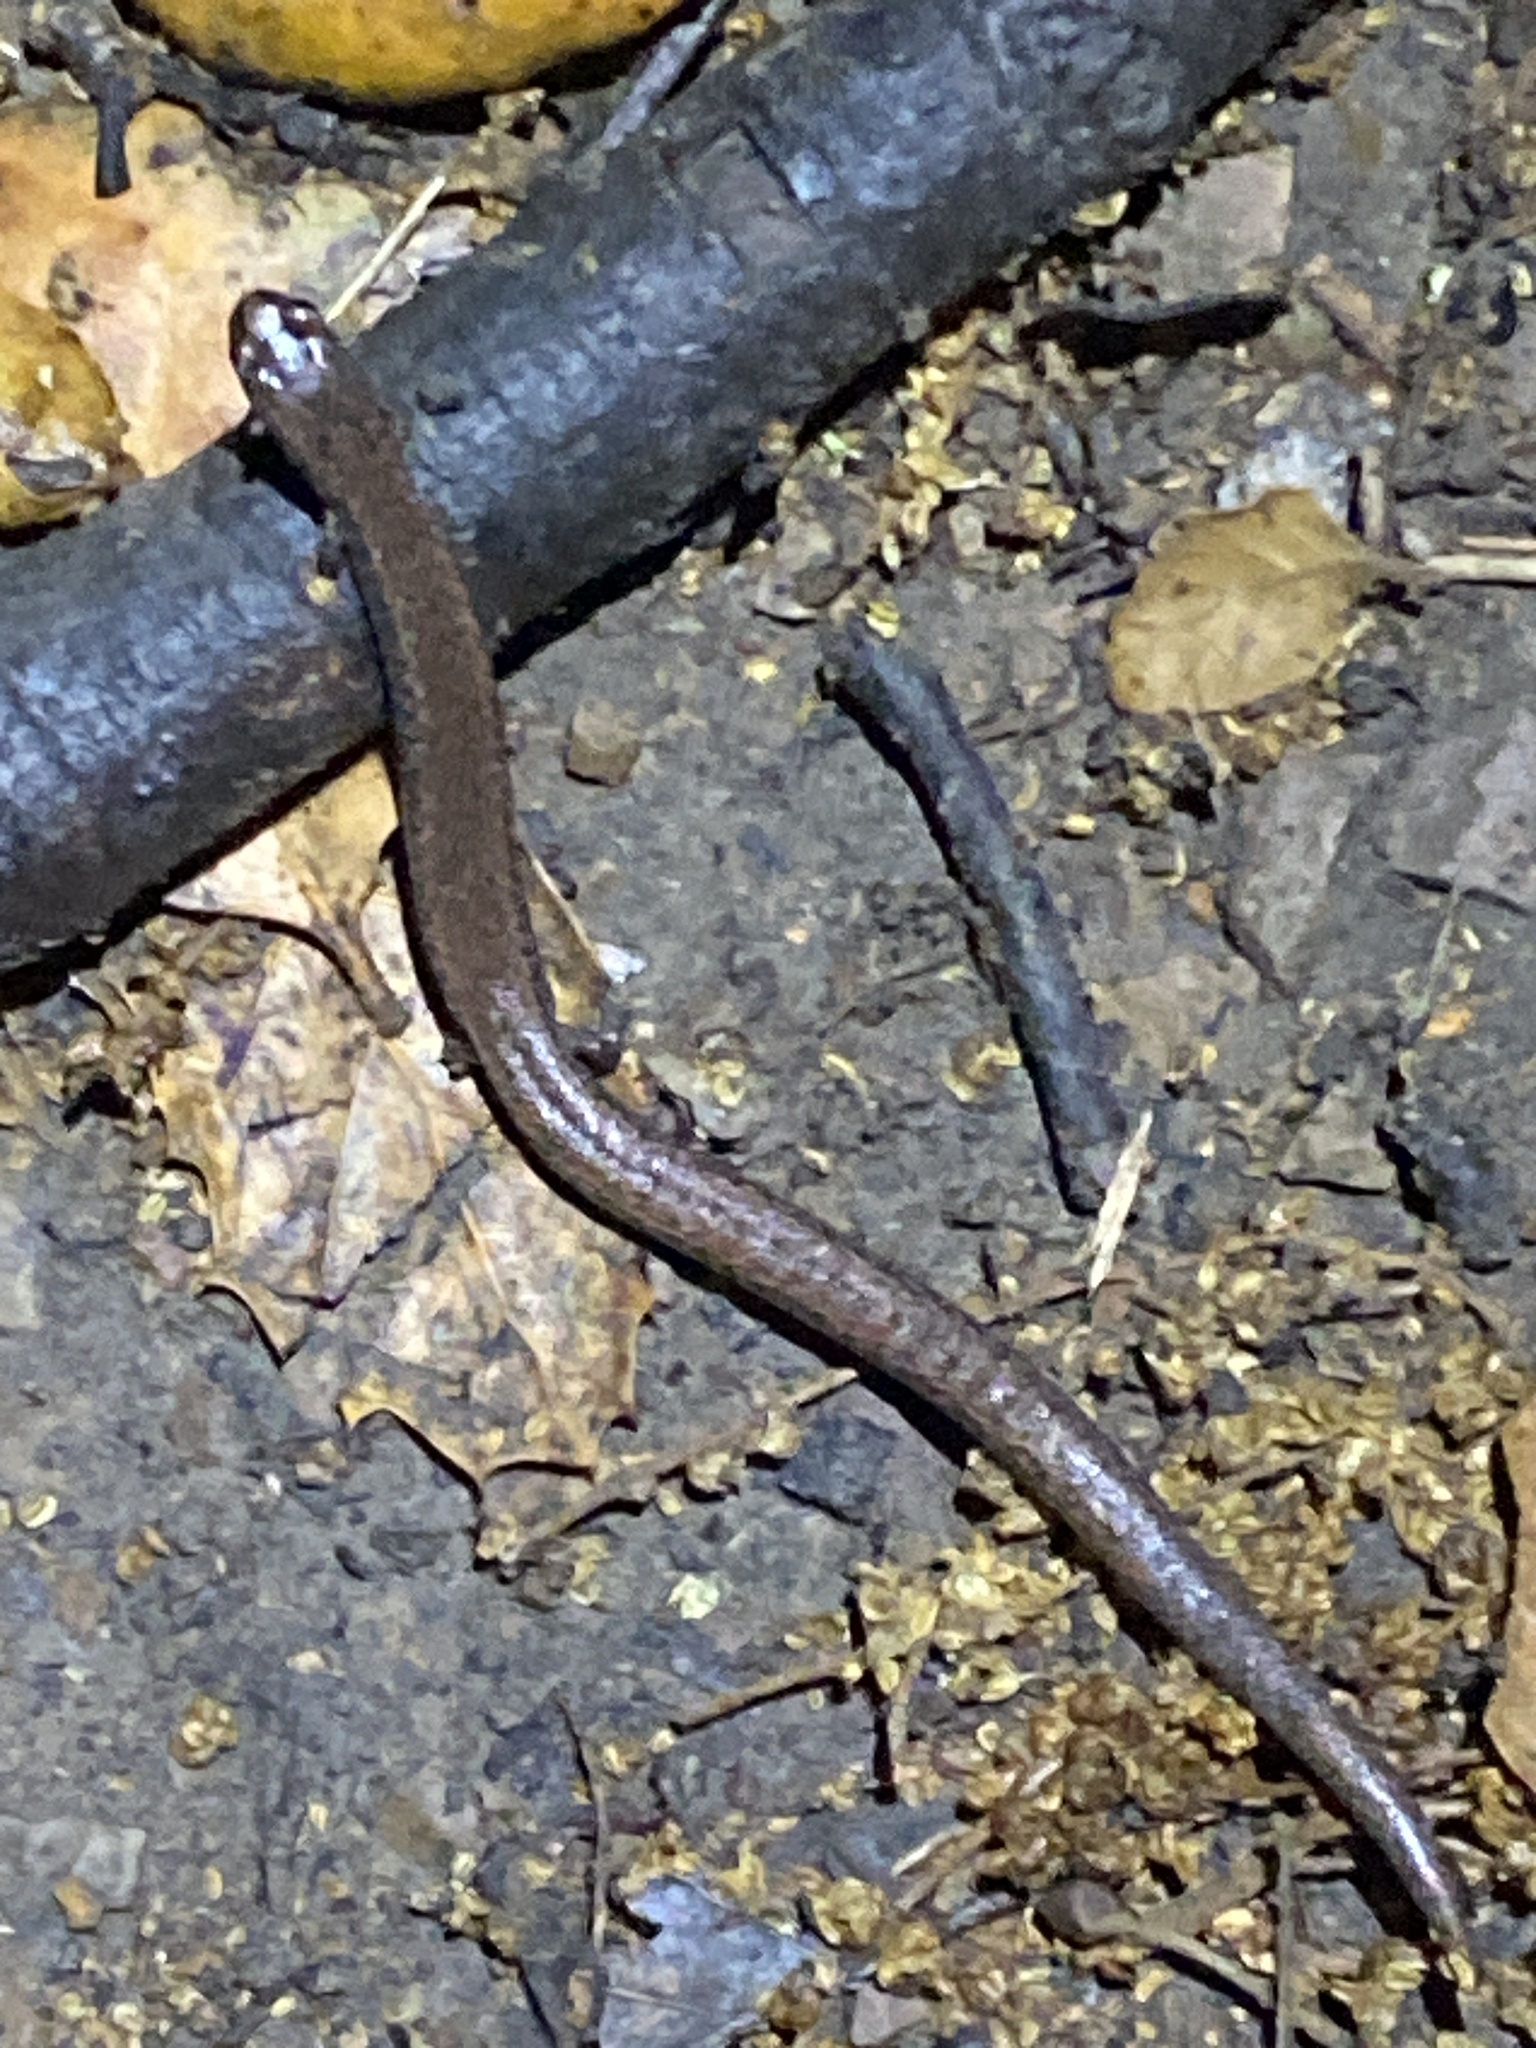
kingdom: Animalia
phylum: Chordata
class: Amphibia
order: Caudata
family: Plethodontidae
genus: Batrachoseps
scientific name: Batrachoseps attenuatus
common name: California slender salamander
